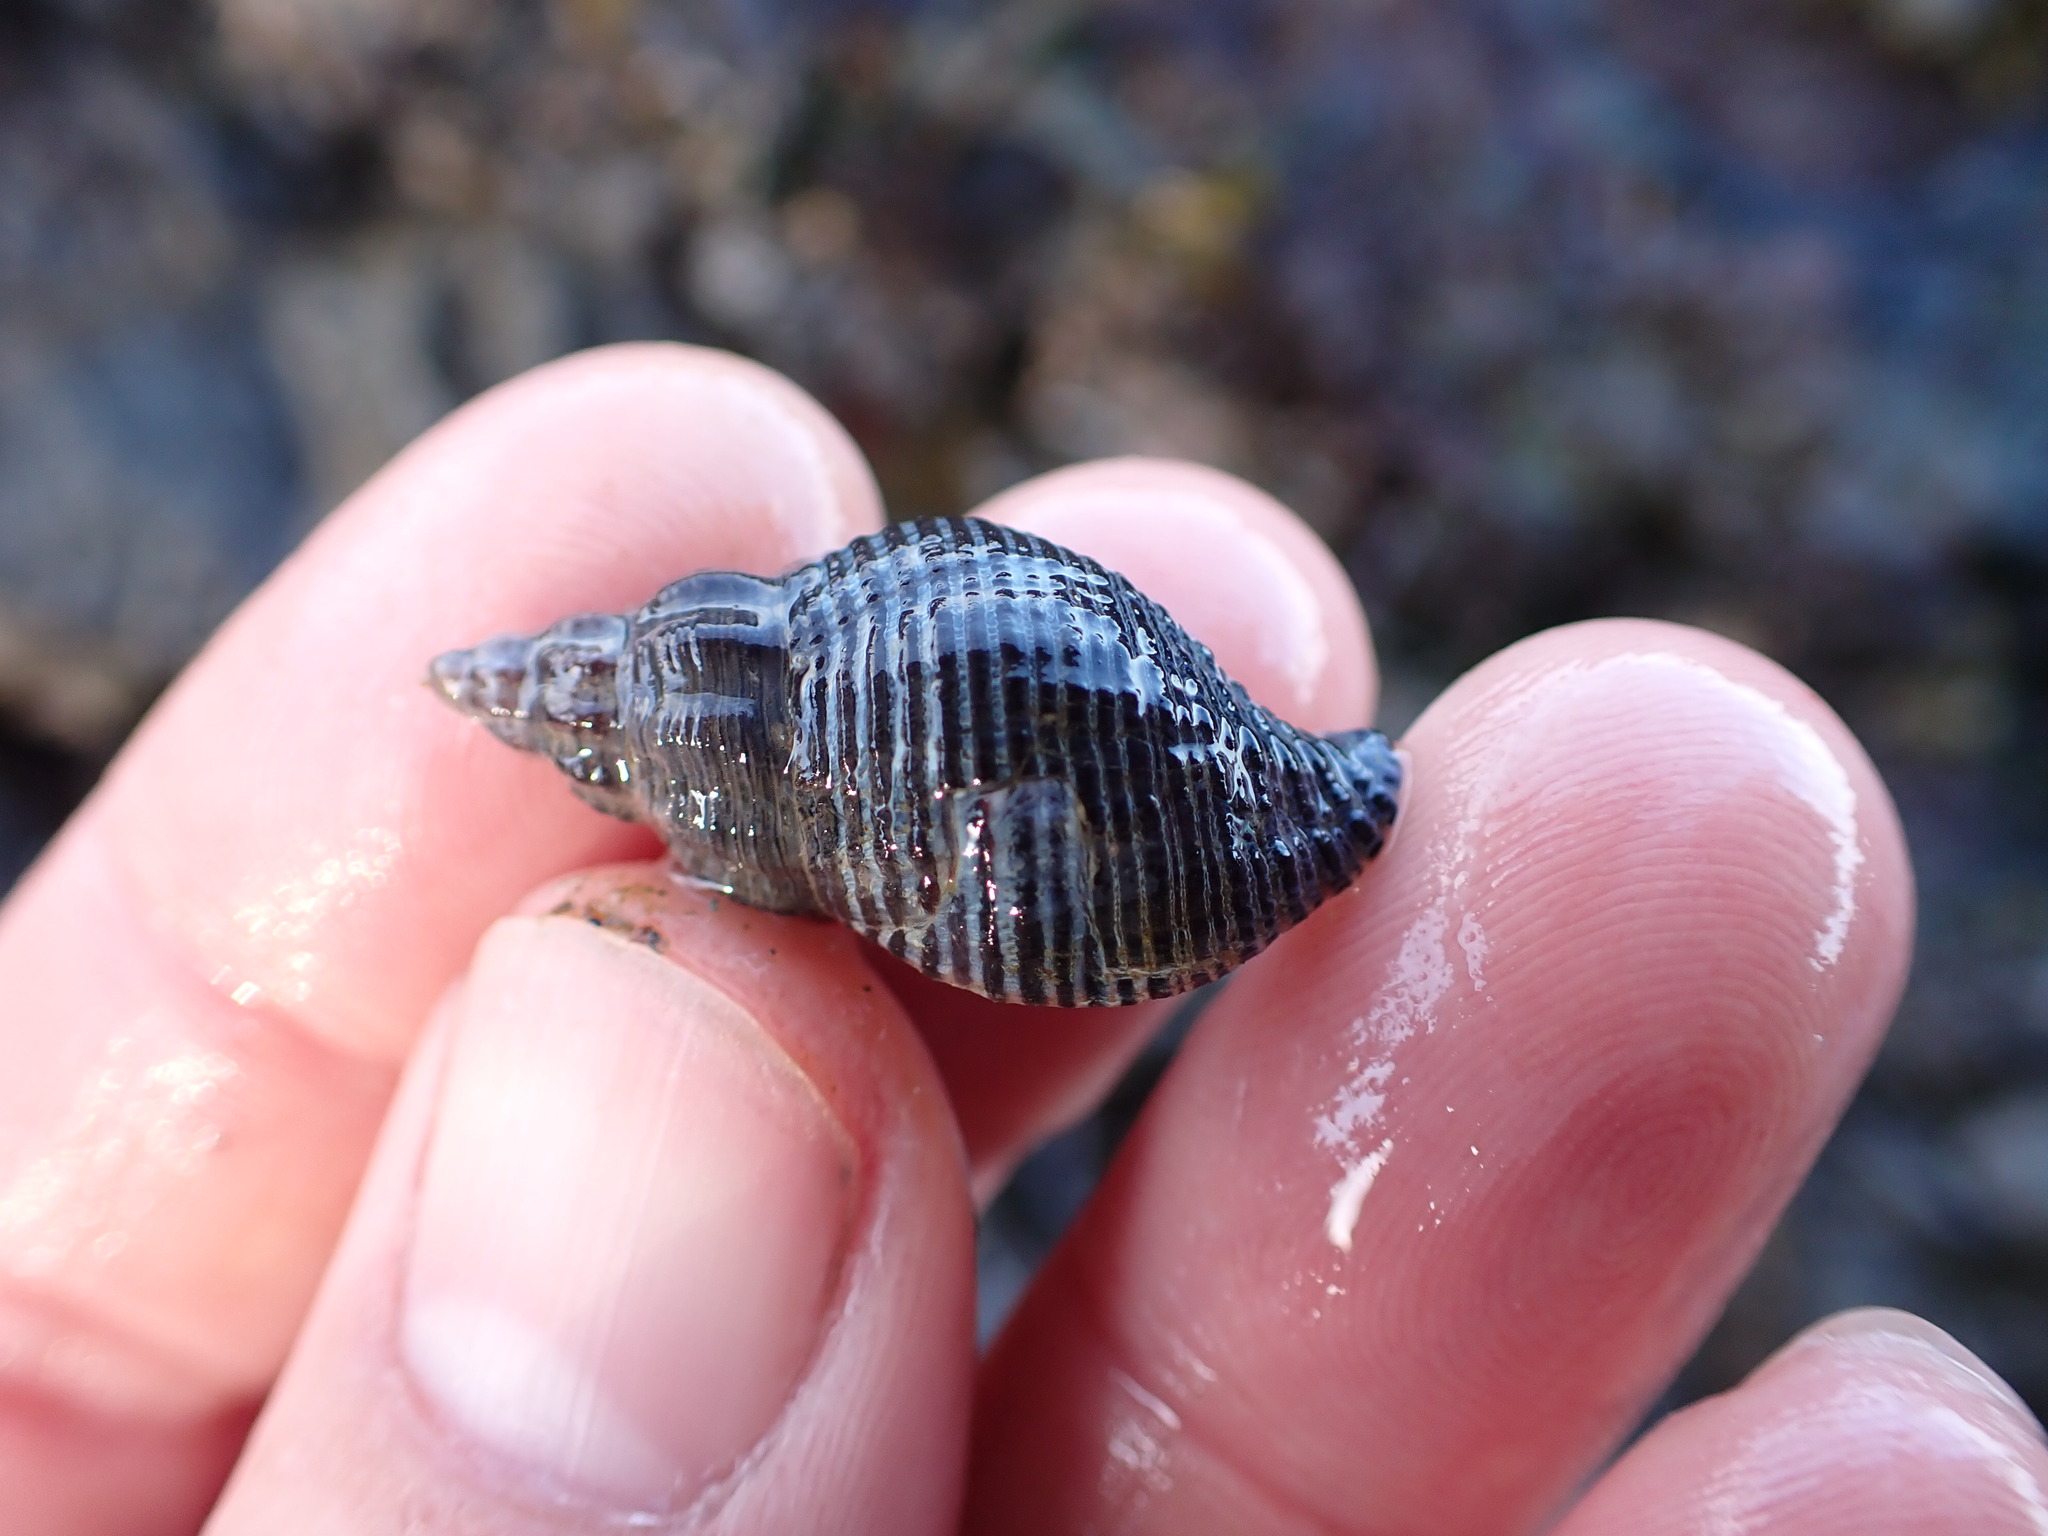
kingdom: Animalia
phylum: Mollusca
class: Gastropoda
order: Neogastropoda
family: Tudiclidae
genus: Lirabuccinum
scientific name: Lirabuccinum dirum
